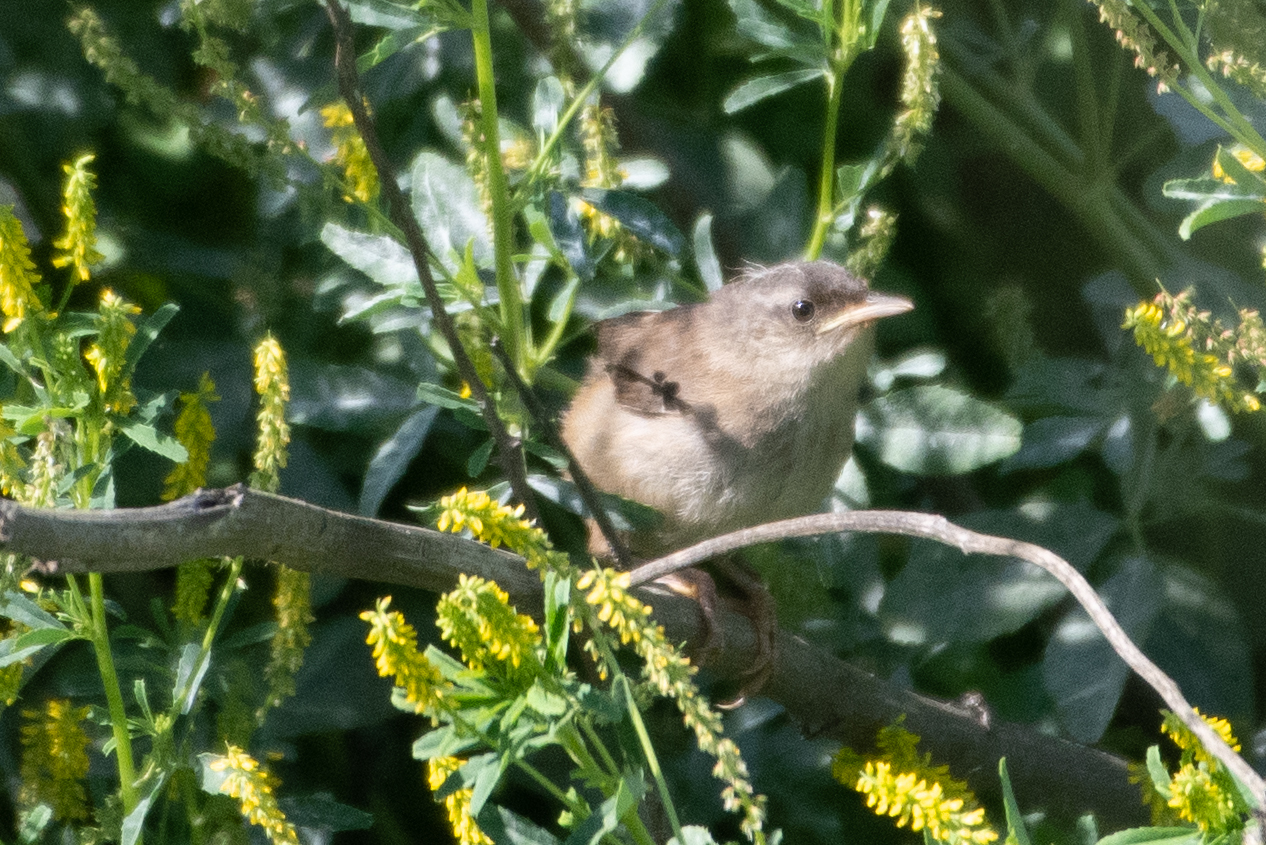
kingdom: Animalia
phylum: Chordata
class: Aves
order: Passeriformes
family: Troglodytidae
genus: Cistothorus
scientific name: Cistothorus palustris
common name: Marsh wren
